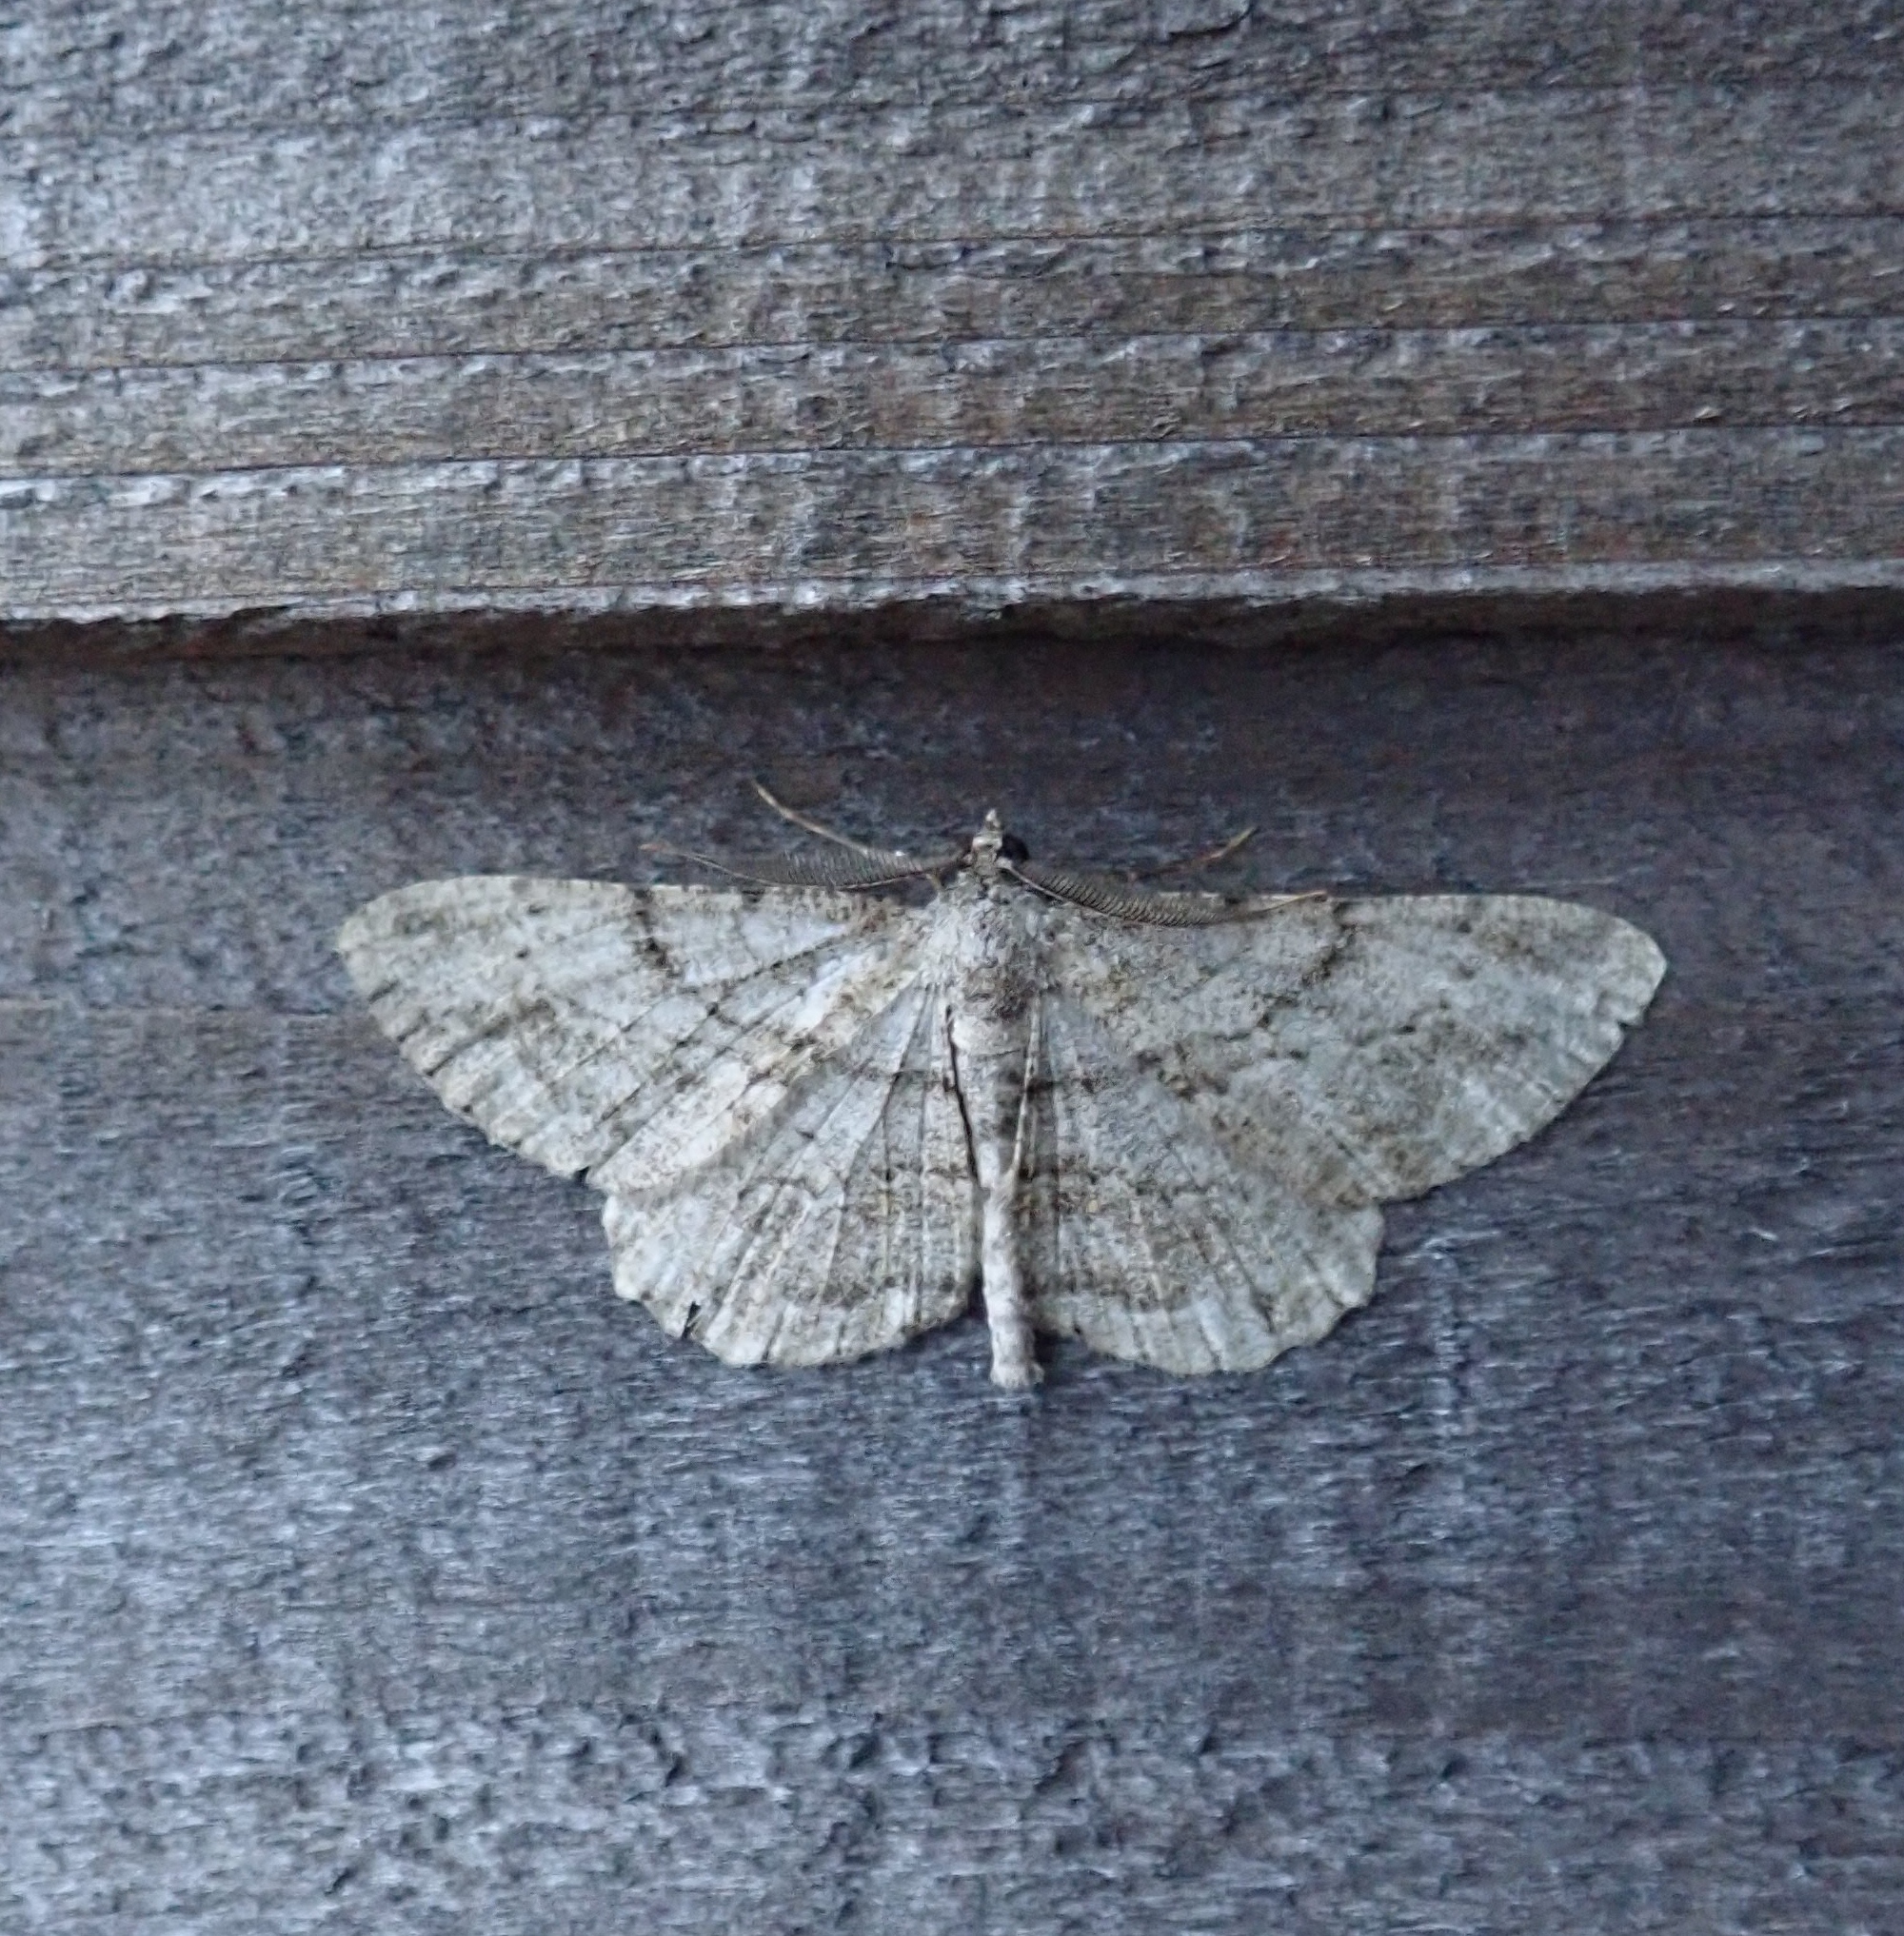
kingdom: Animalia
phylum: Arthropoda
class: Insecta
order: Lepidoptera
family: Geometridae
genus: Peribatodes
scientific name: Peribatodes rhomboidaria
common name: Willow beauty
